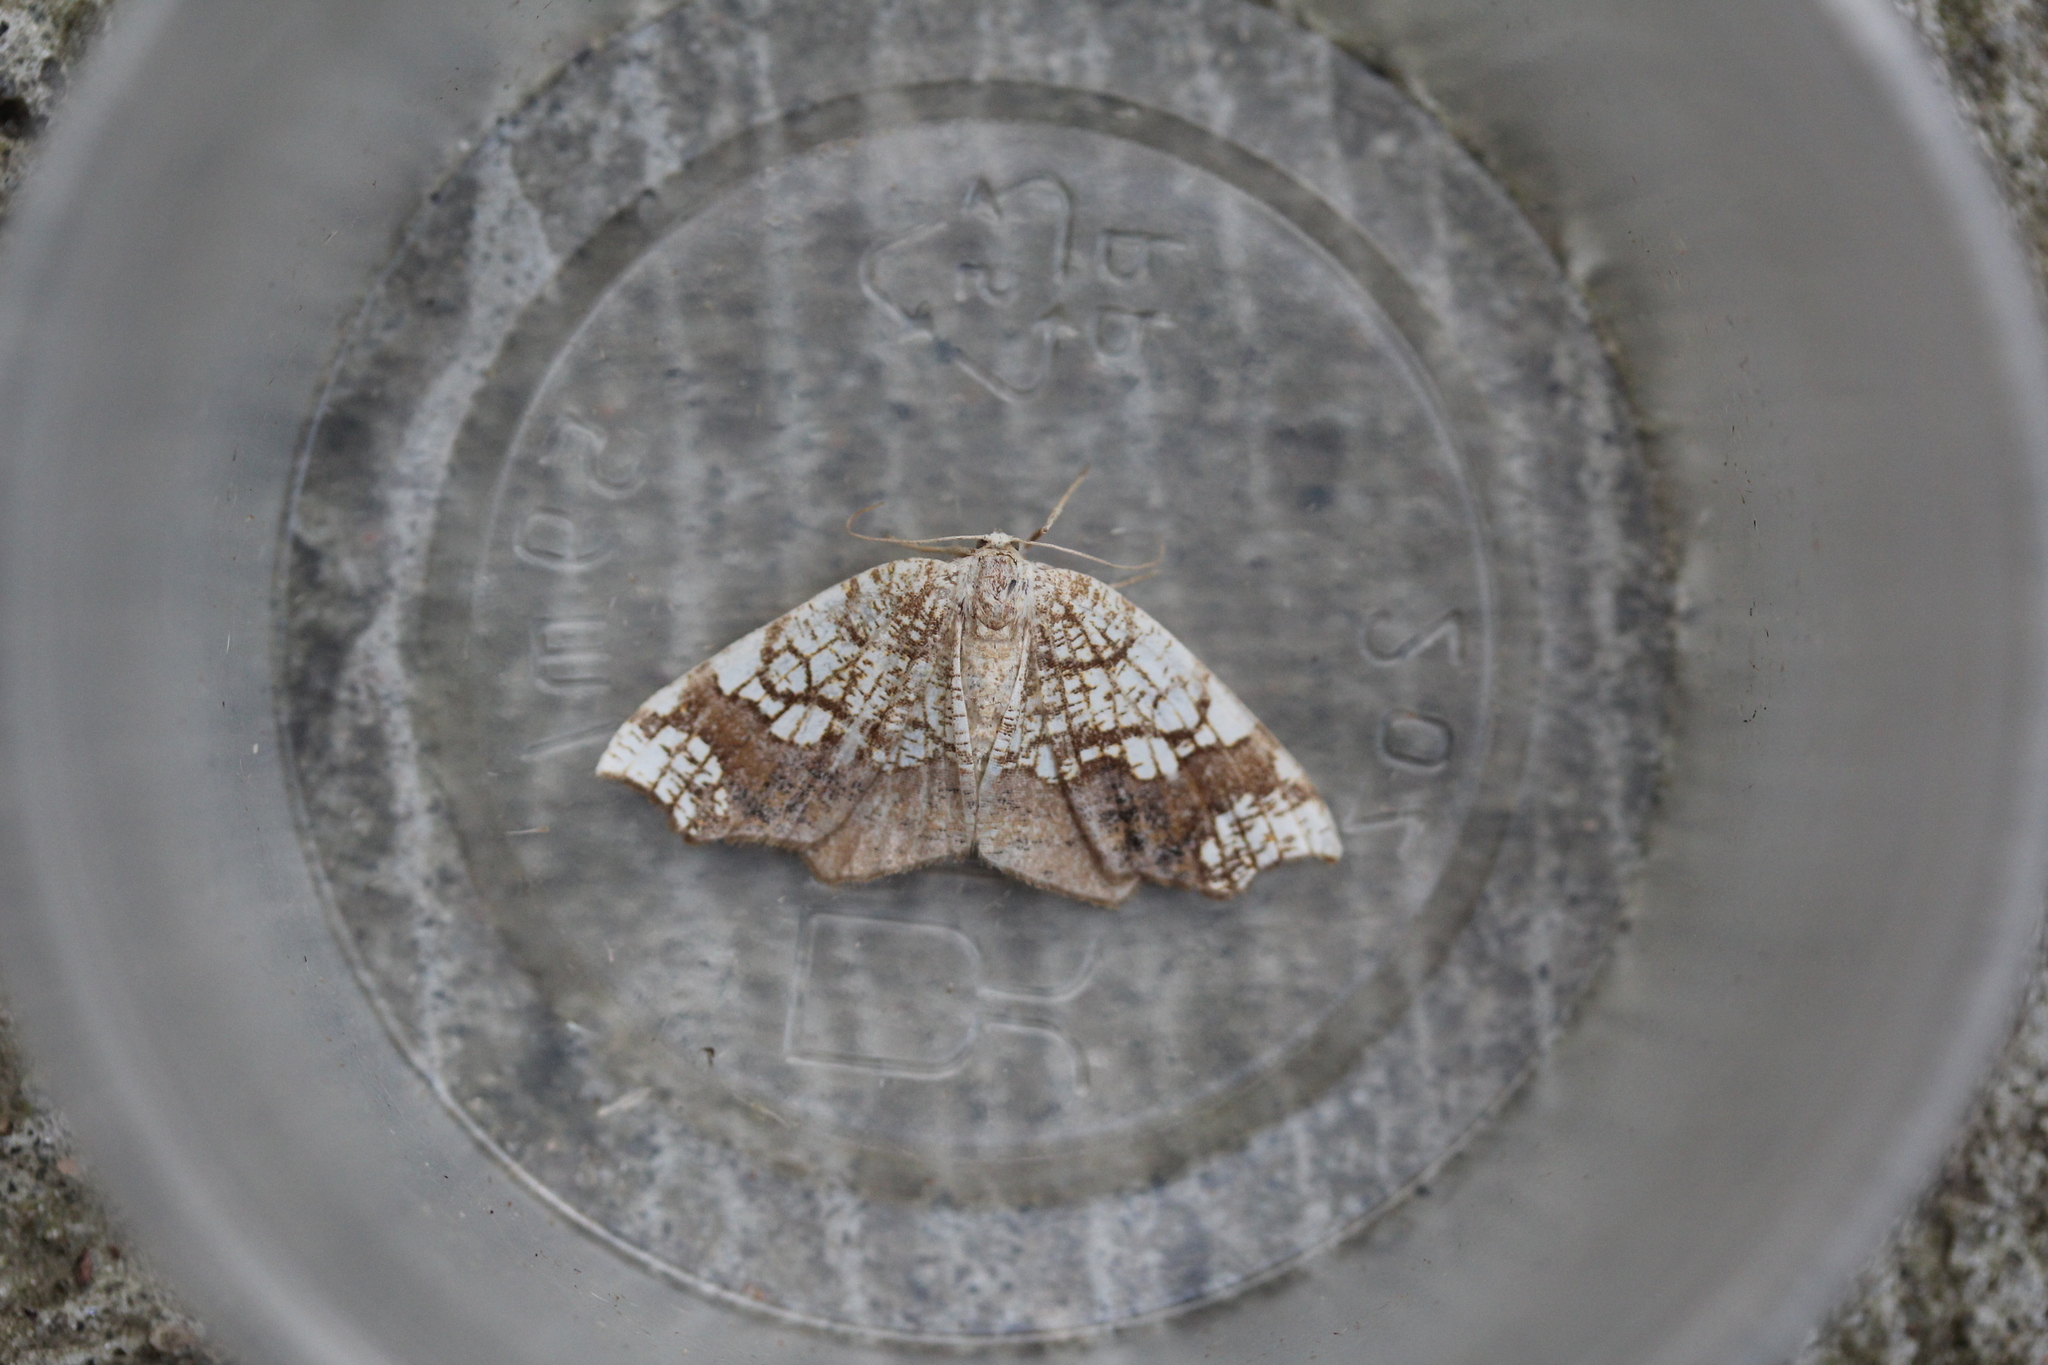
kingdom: Animalia
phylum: Arthropoda
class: Insecta
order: Lepidoptera
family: Geometridae
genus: Nematocampa
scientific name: Nematocampa resistaria
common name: Horned spanworm moth
